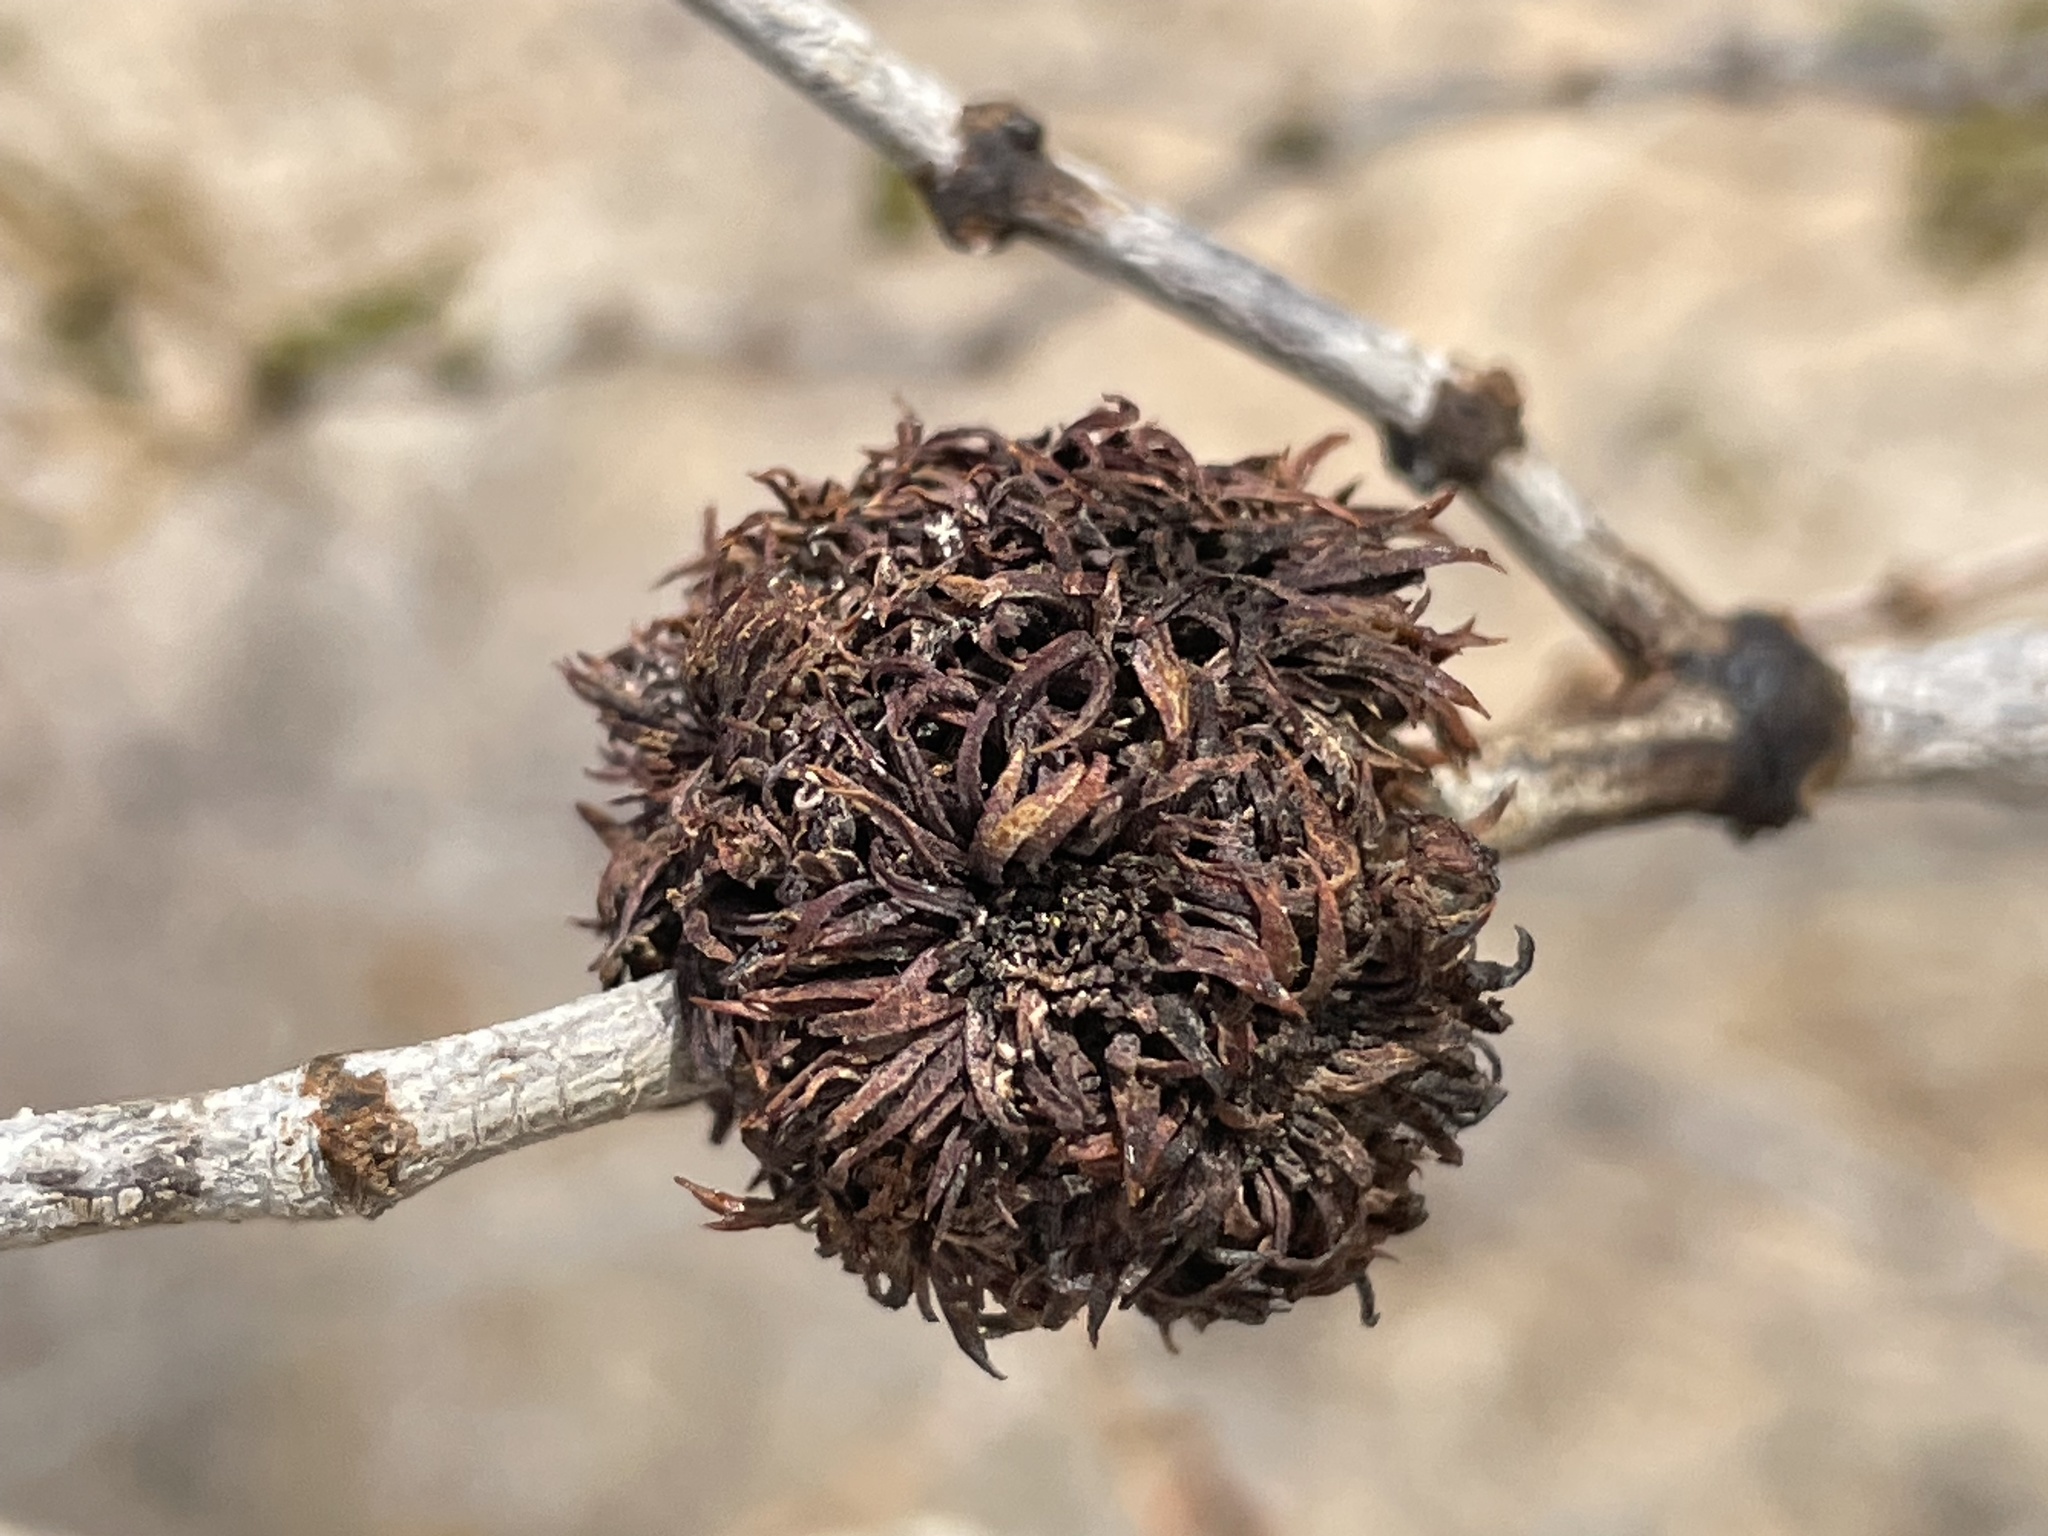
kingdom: Animalia
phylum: Arthropoda
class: Insecta
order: Diptera
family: Cecidomyiidae
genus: Asphondylia
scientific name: Asphondylia auripila
